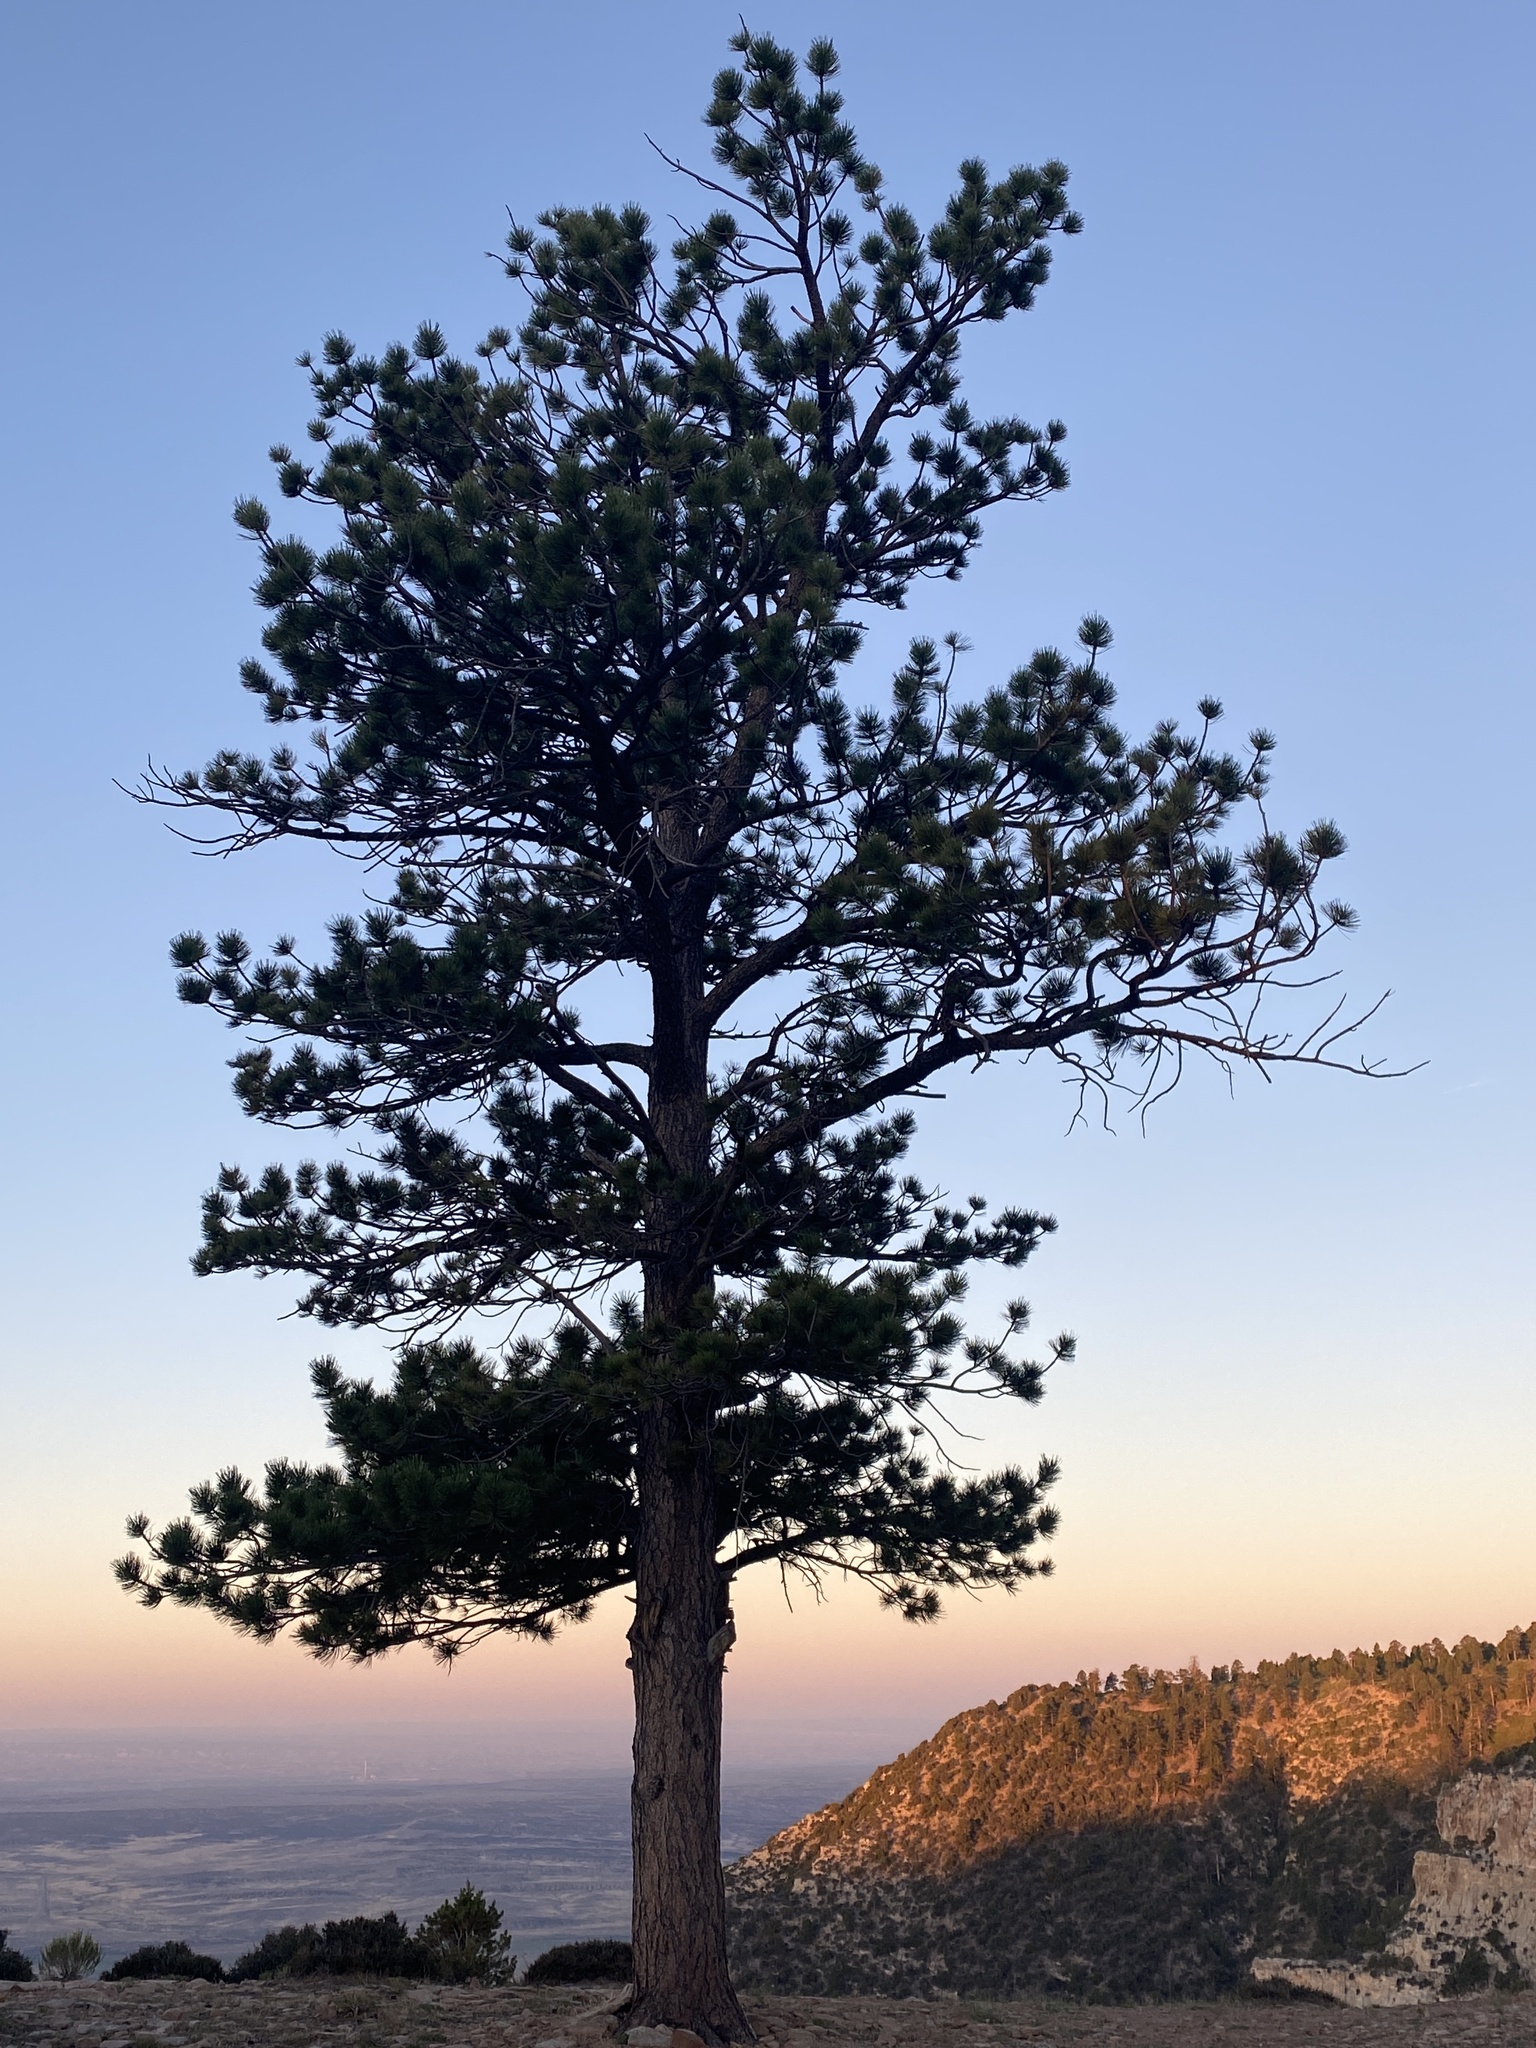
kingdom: Plantae
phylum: Tracheophyta
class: Pinopsida
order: Pinales
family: Pinaceae
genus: Pinus
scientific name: Pinus ponderosa
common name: Western yellow-pine
